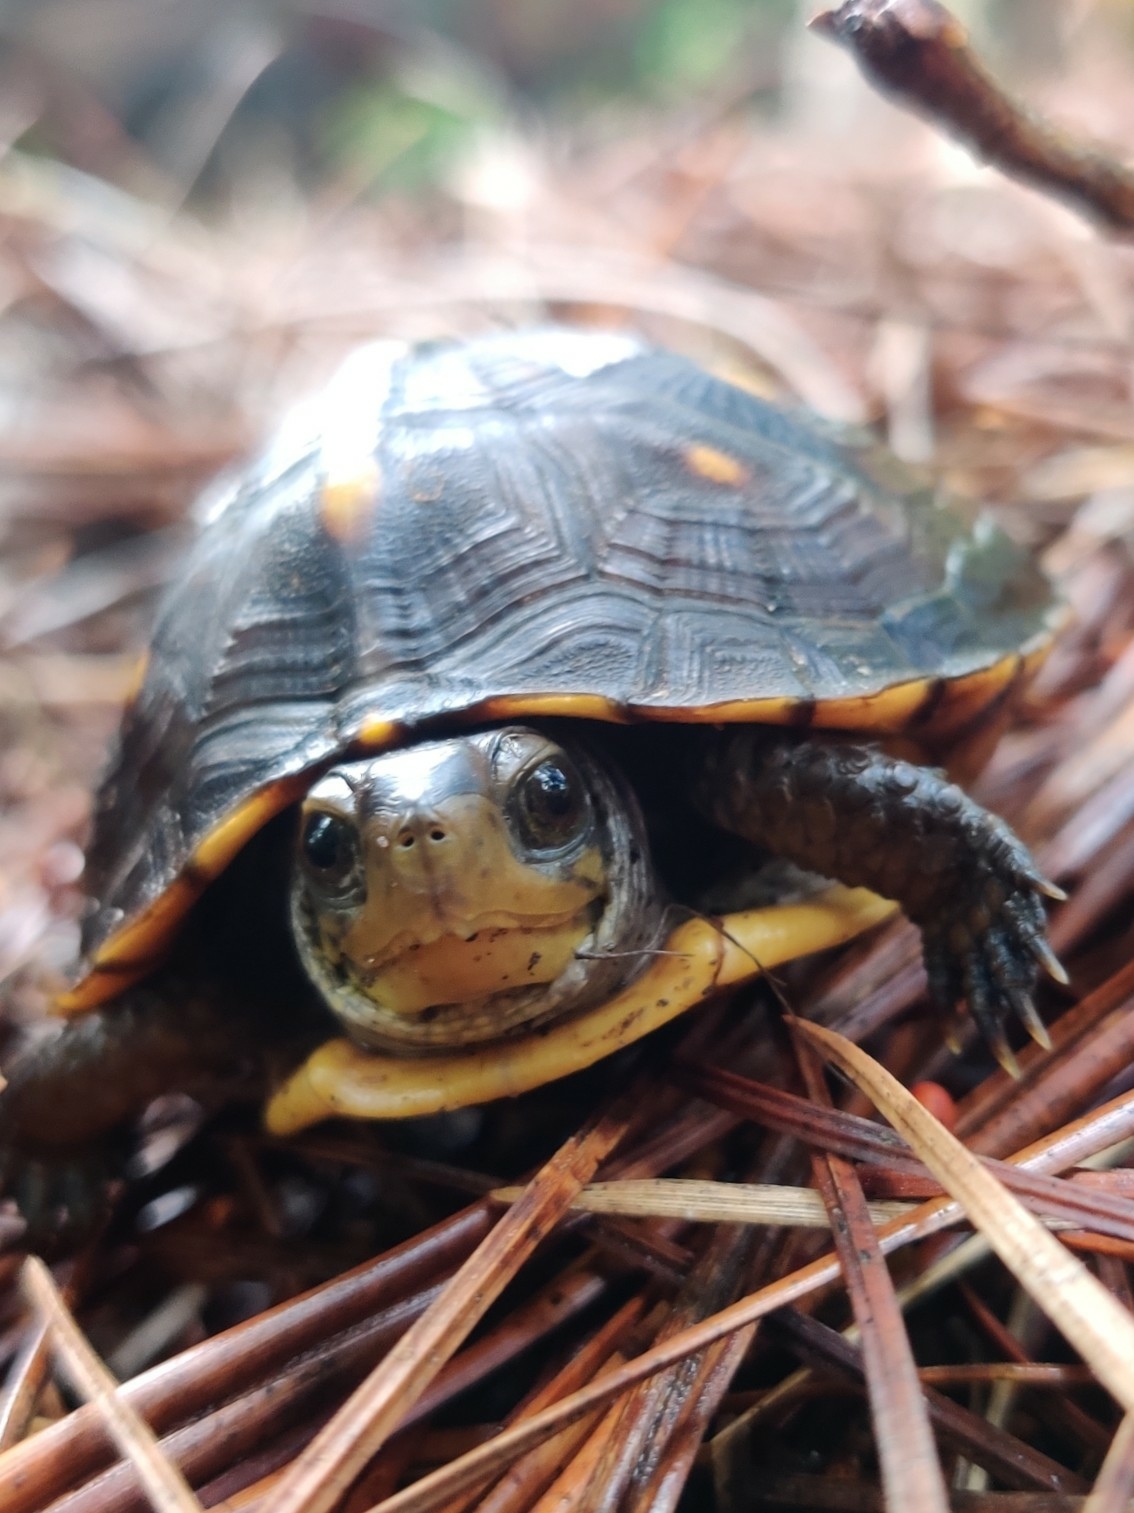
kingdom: Animalia
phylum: Chordata
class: Testudines
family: Emydidae
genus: Terrapene
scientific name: Terrapene carolina
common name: Common box turtle
